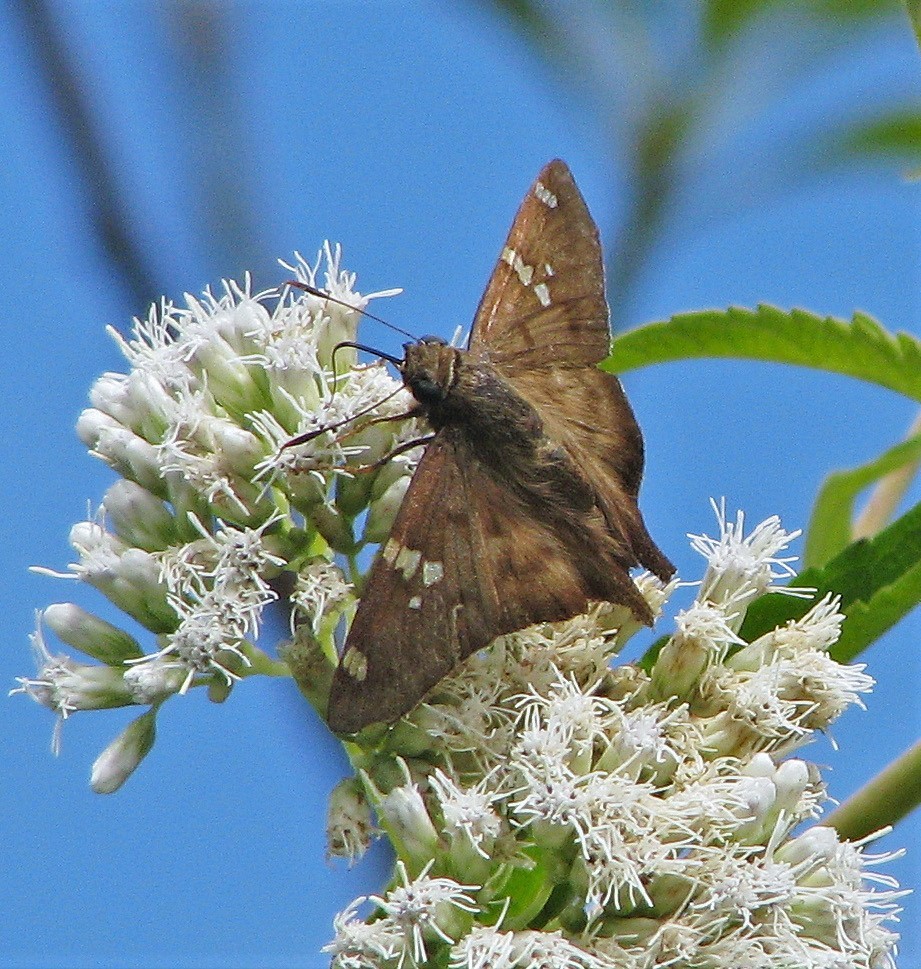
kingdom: Animalia
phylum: Arthropoda
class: Insecta
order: Lepidoptera
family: Hesperiidae
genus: Polythrix
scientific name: Polythrix octomaculata
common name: Eight-spotted longtail
